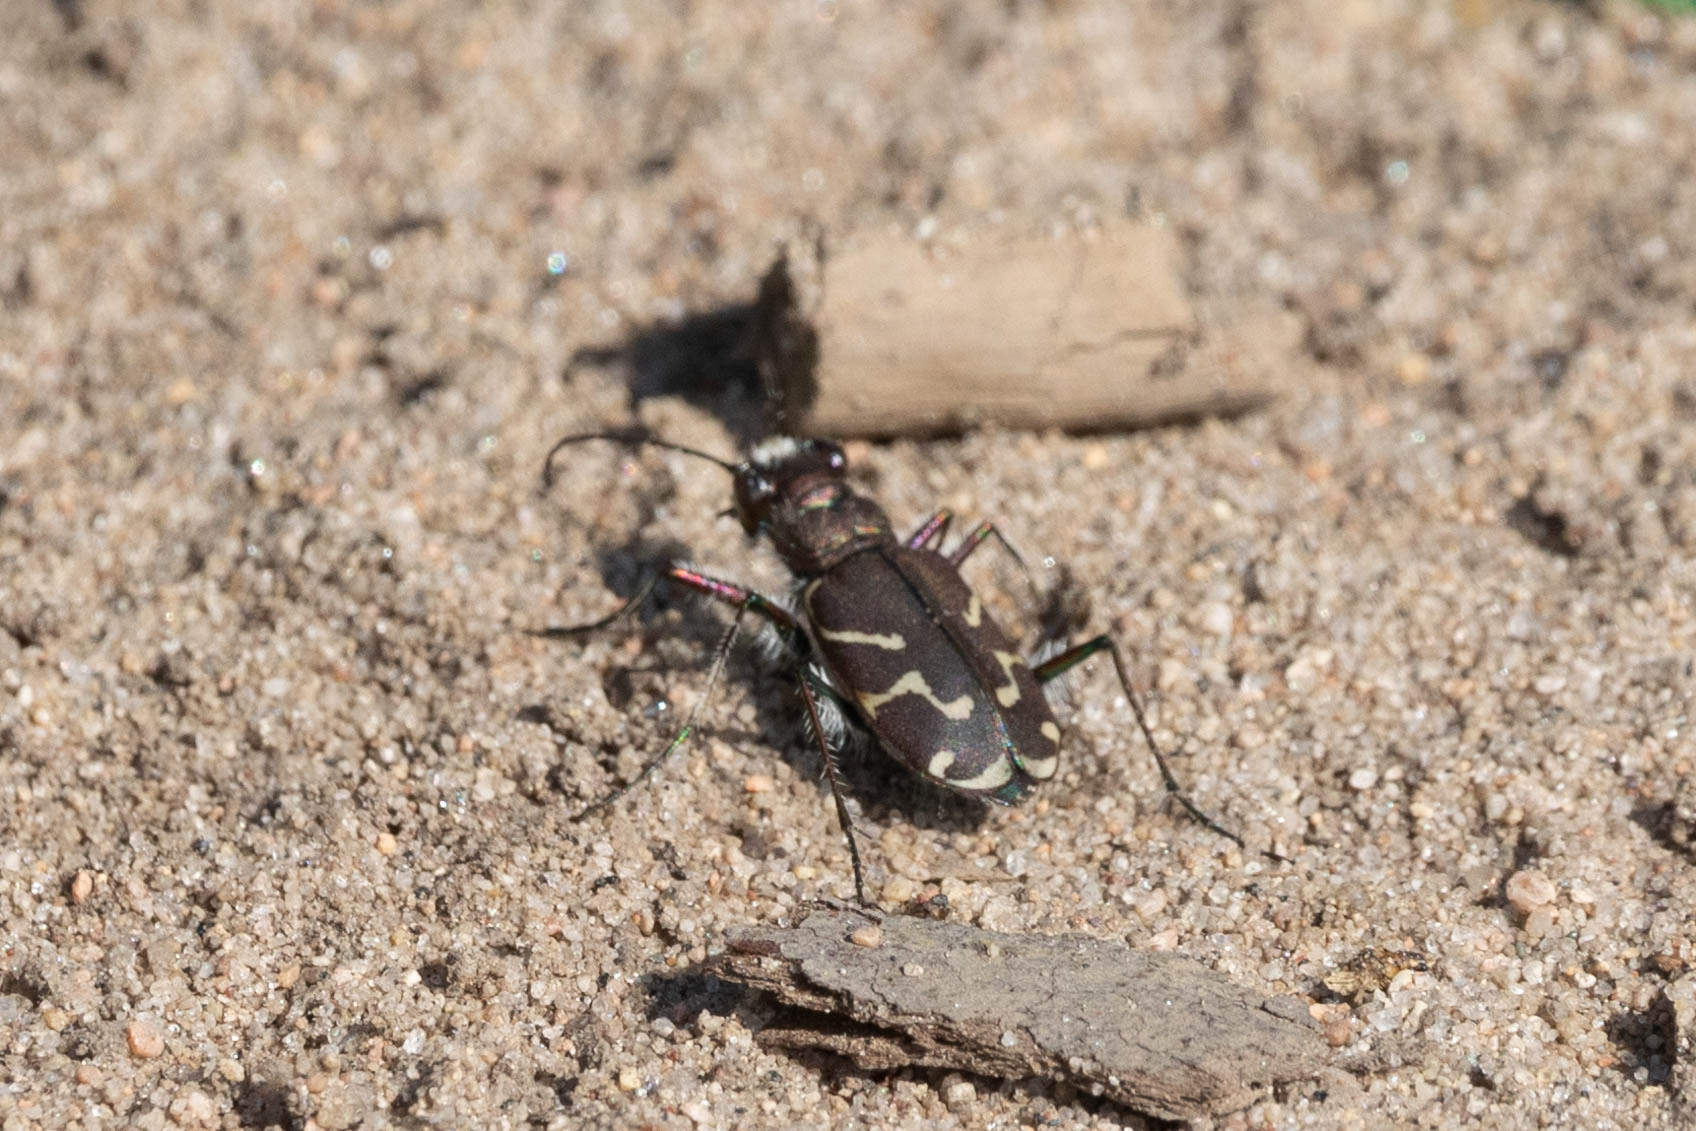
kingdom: Animalia
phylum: Arthropoda
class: Insecta
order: Coleoptera
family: Carabidae
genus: Cicindela
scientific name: Cicindela tranquebarica
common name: Oblique-lined tiger beetle
